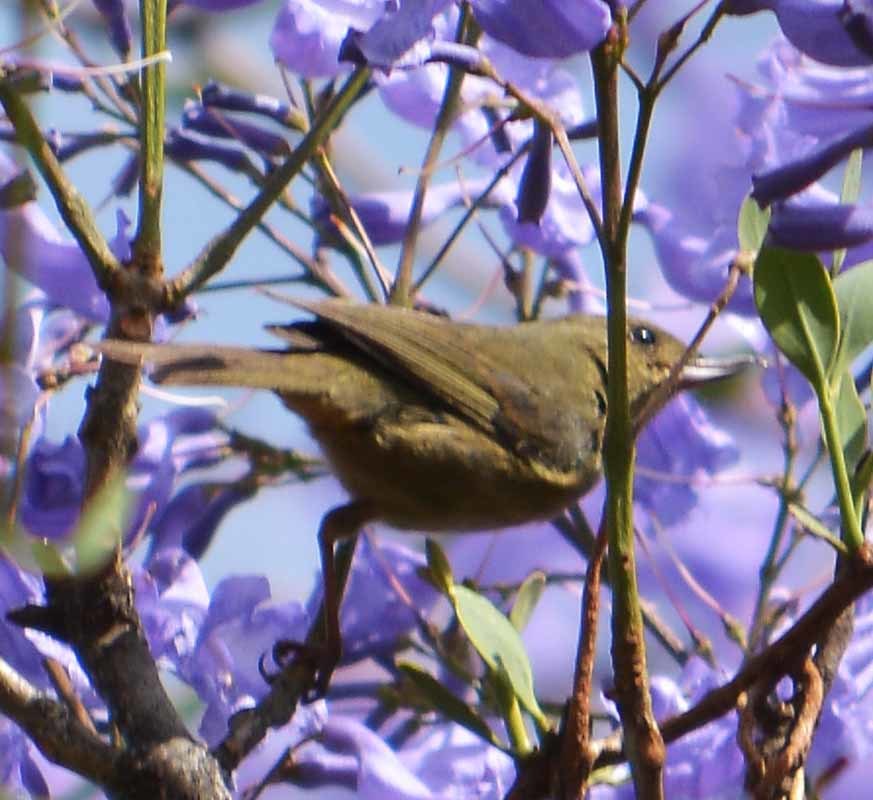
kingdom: Animalia
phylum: Chordata
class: Aves
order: Passeriformes
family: Thraupidae
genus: Diglossa
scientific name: Diglossa baritula
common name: Cinnamon-bellied flowerpiercer
